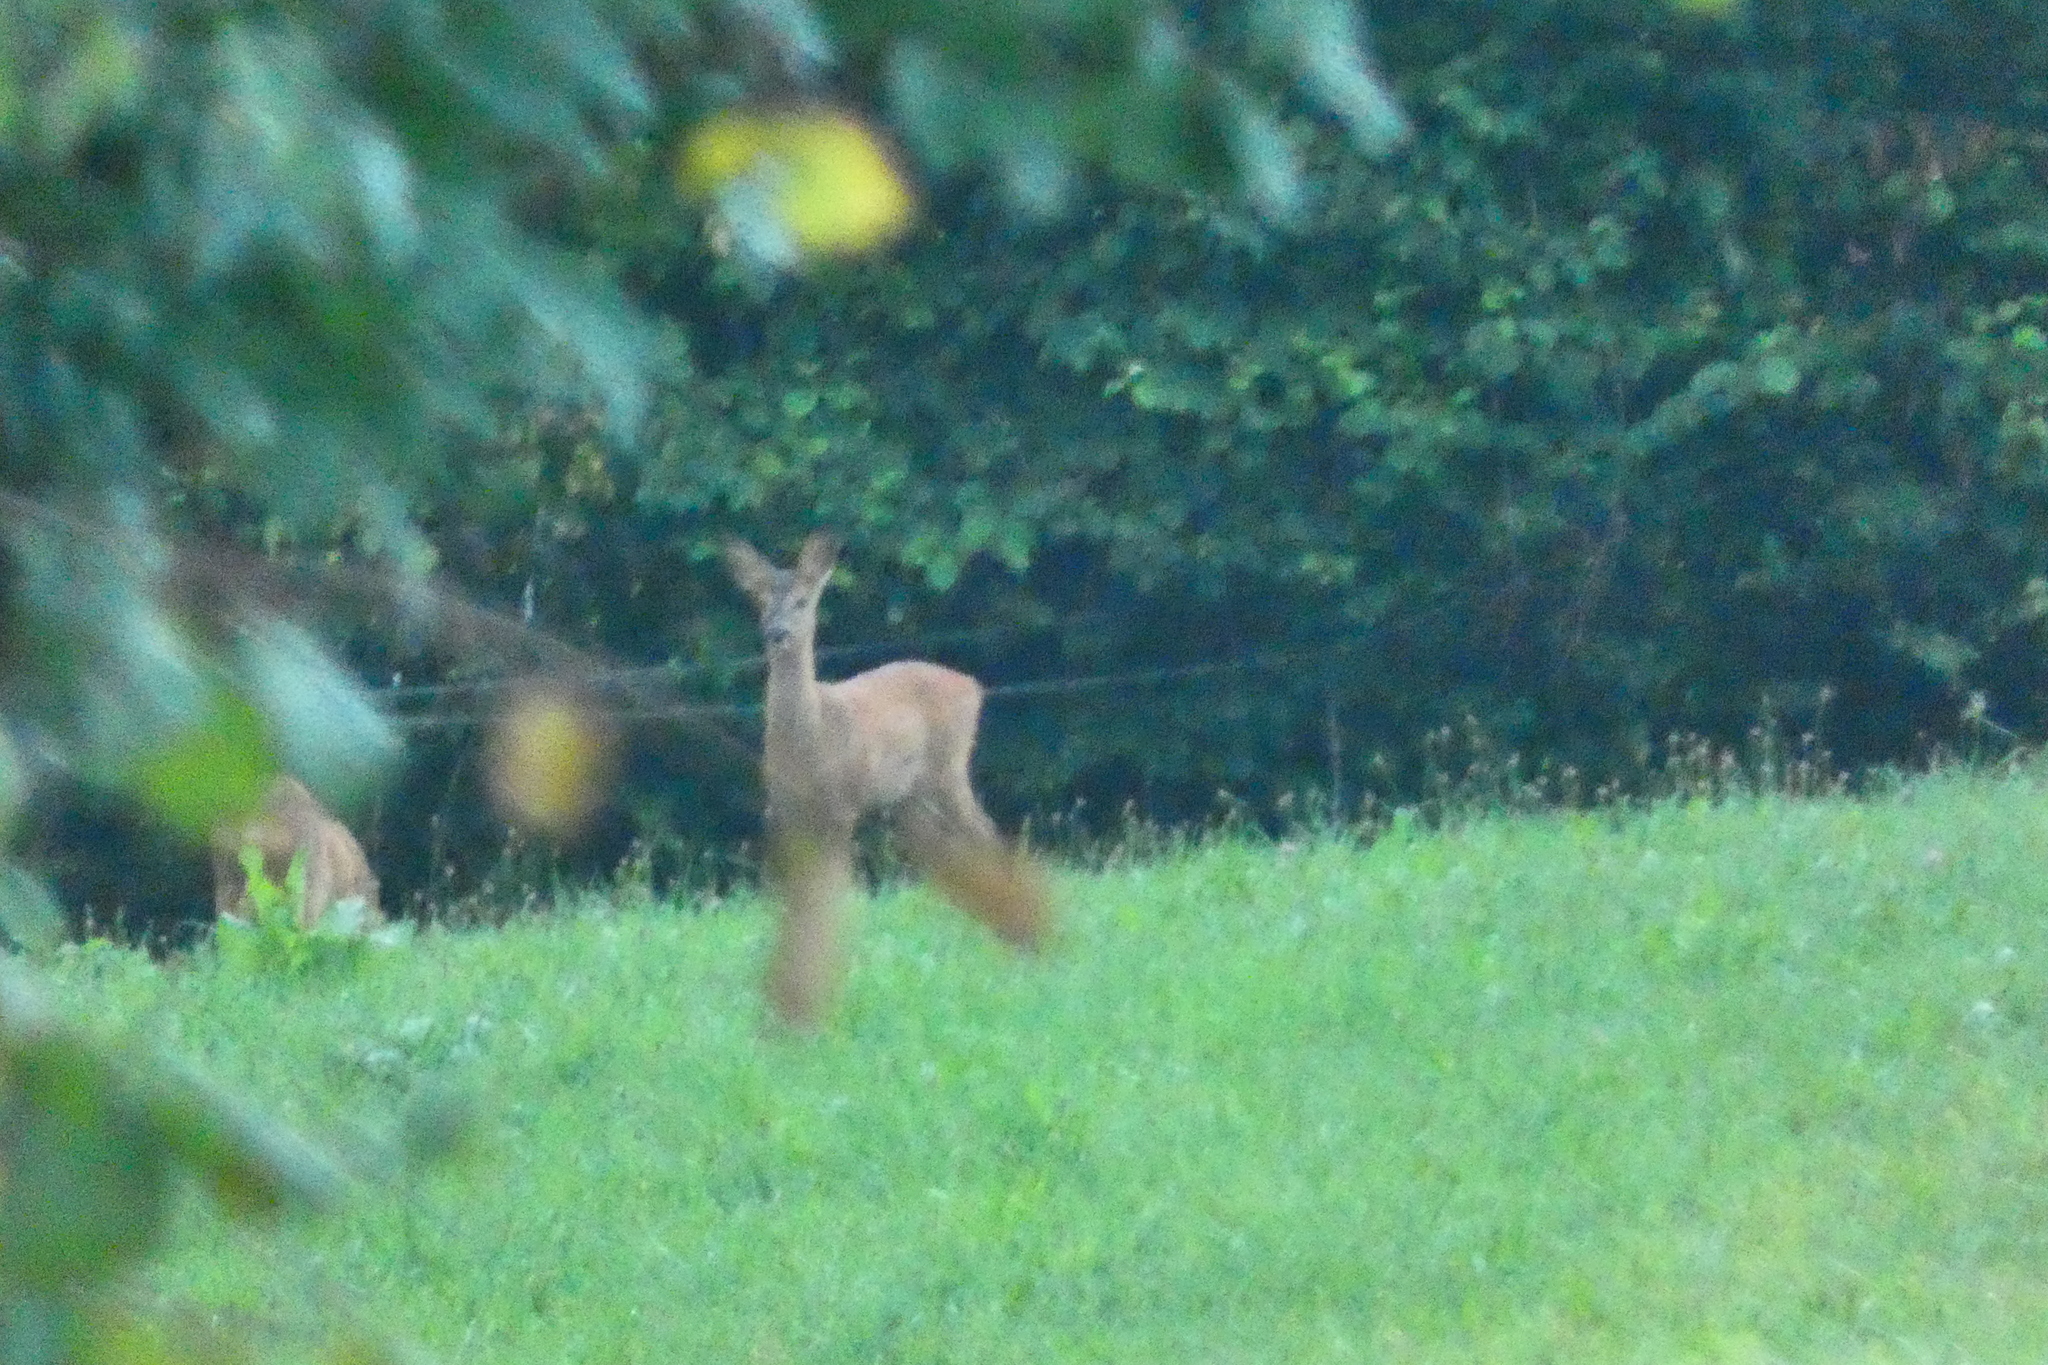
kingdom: Animalia
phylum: Chordata
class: Mammalia
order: Artiodactyla
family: Cervidae
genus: Capreolus
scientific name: Capreolus capreolus
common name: Western roe deer
